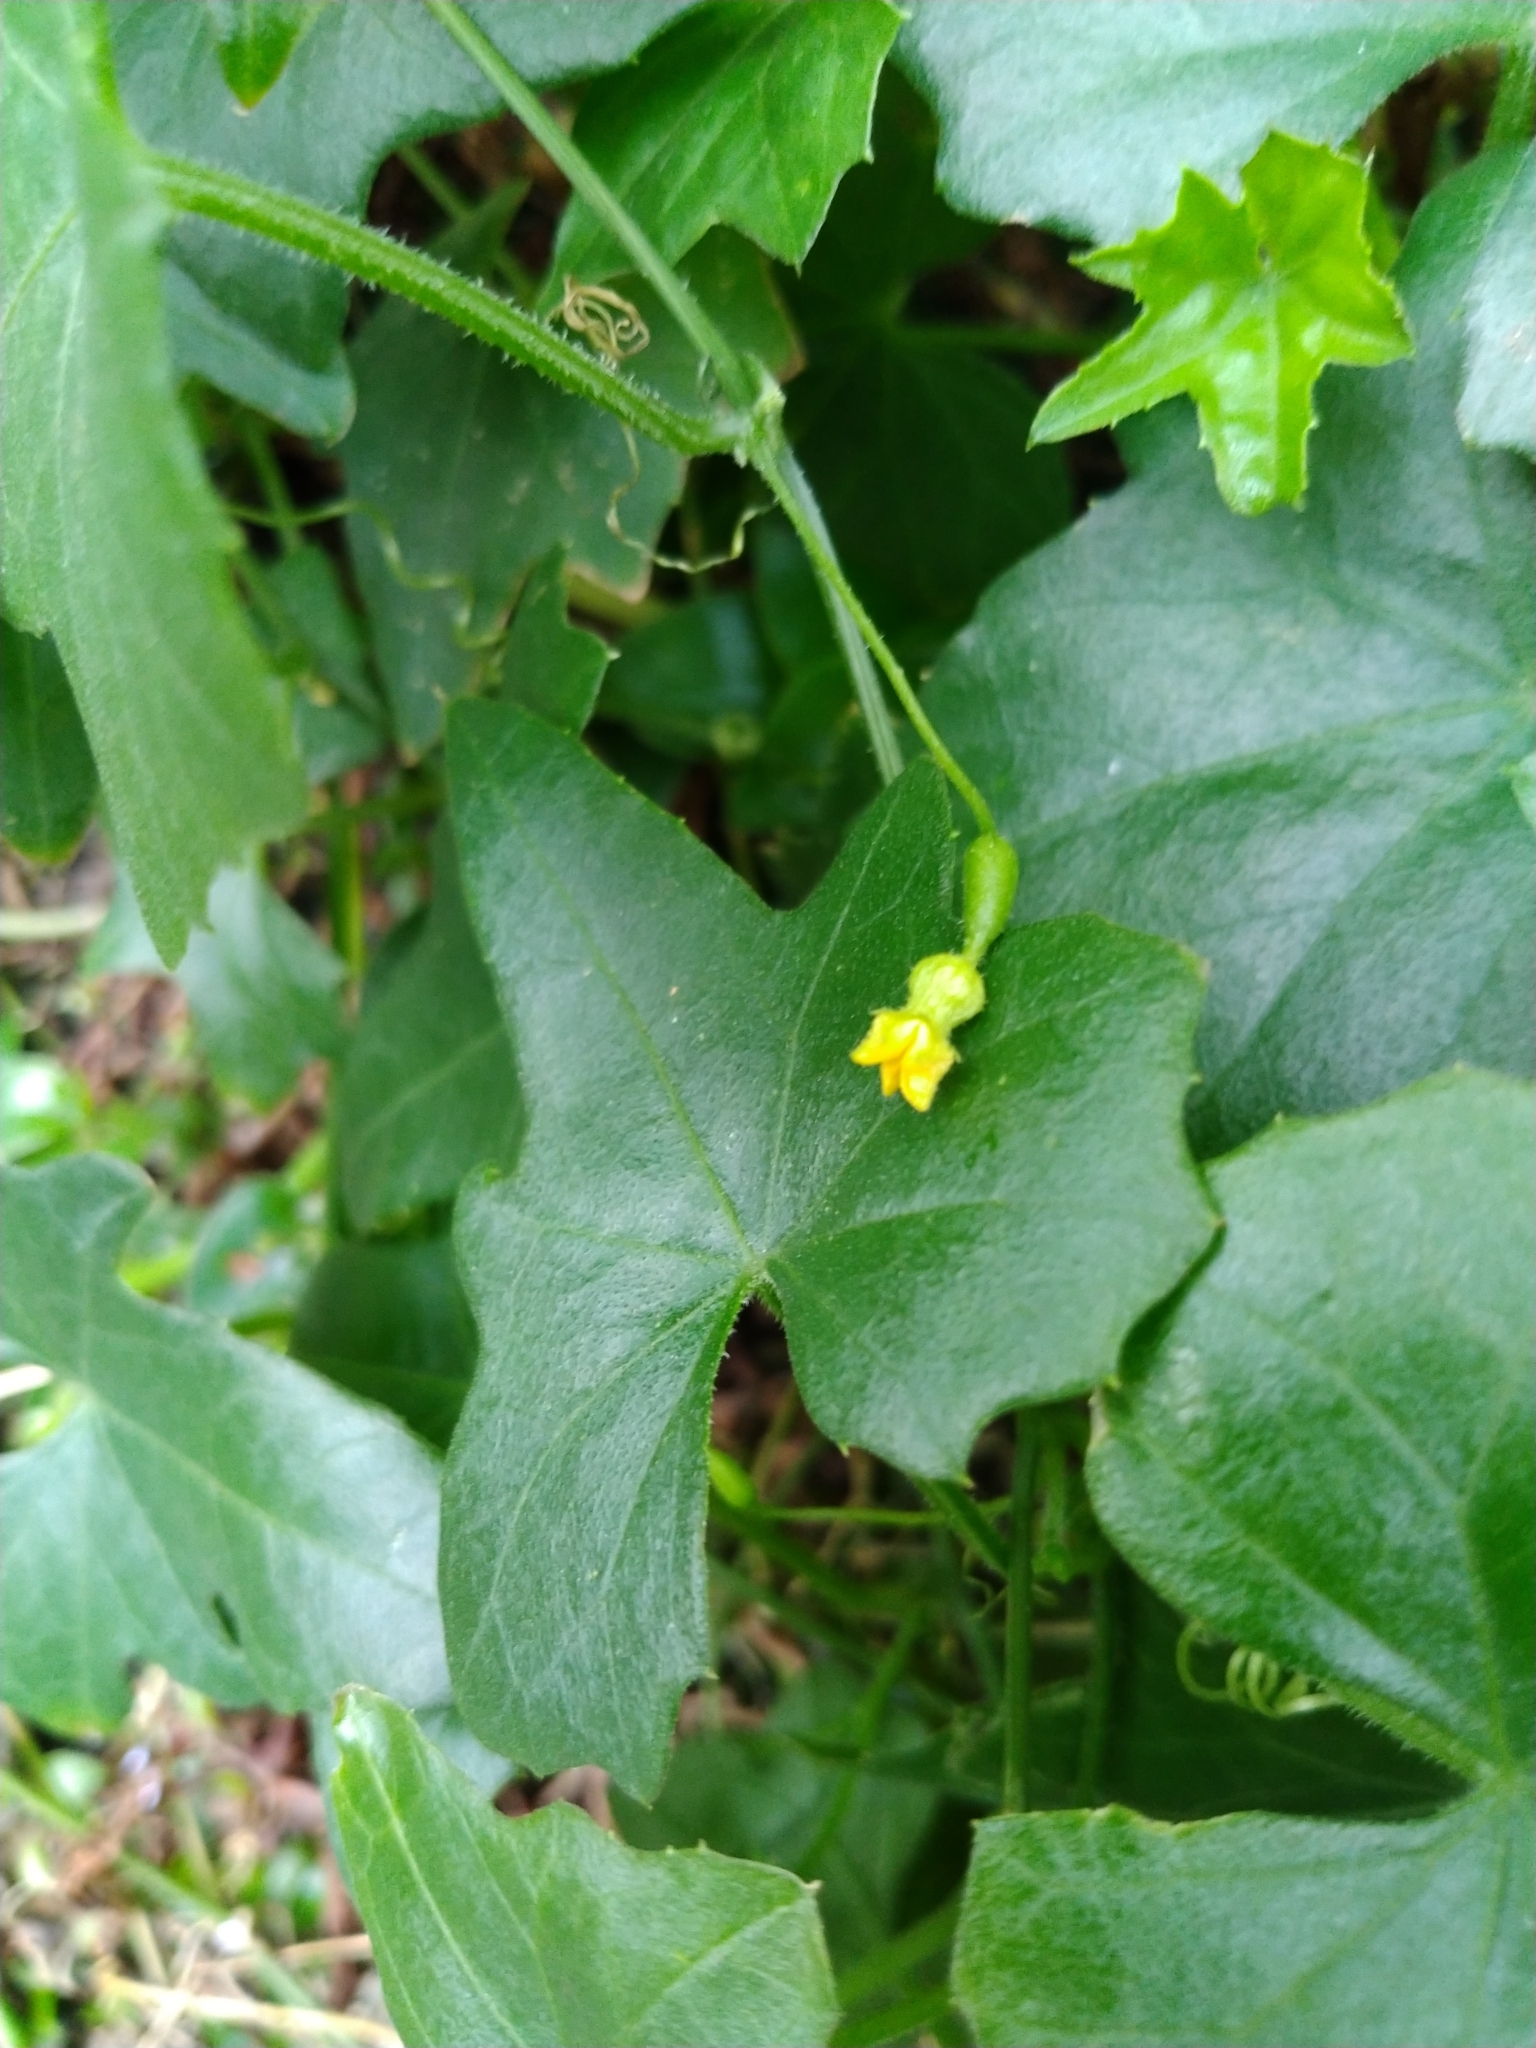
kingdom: Plantae
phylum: Tracheophyta
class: Magnoliopsida
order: Cucurbitales
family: Cucurbitaceae
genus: Melothria
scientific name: Melothria pendula
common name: Creeping-cucumber
